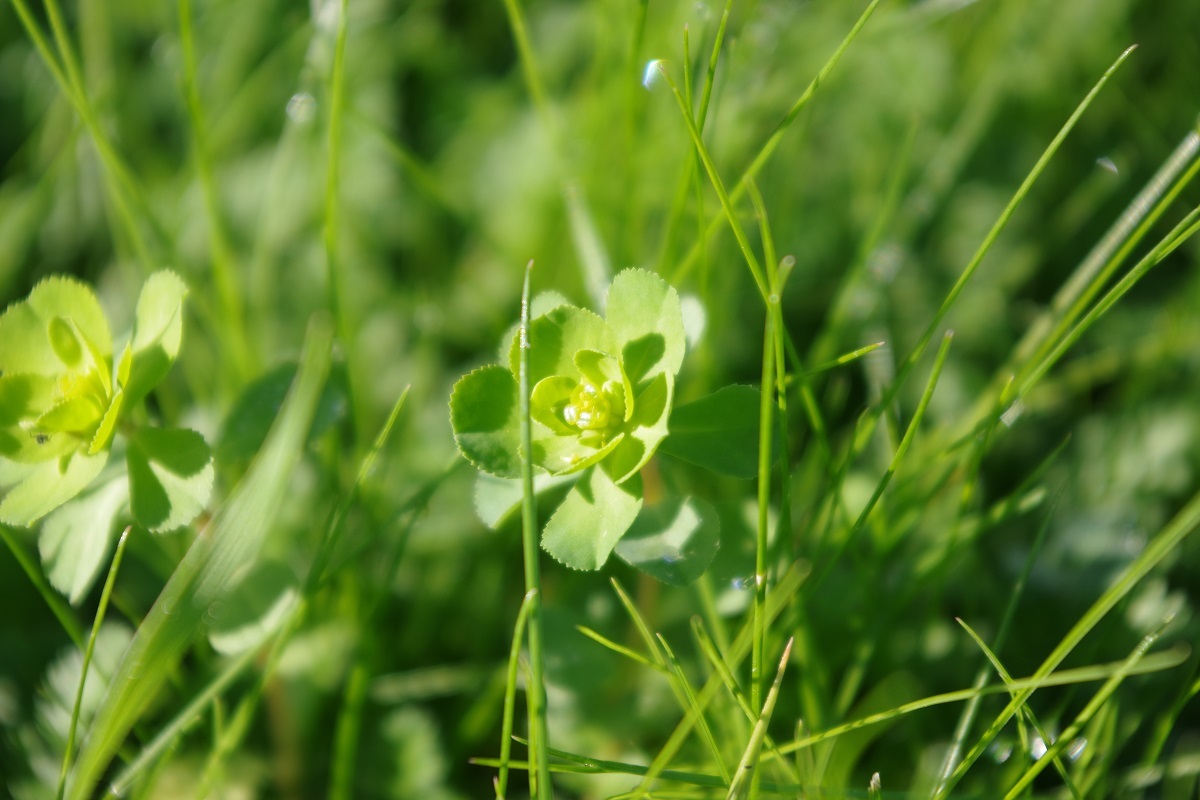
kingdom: Plantae
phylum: Tracheophyta
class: Magnoliopsida
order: Malpighiales
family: Euphorbiaceae
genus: Euphorbia
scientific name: Euphorbia helioscopia
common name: Sun spurge
